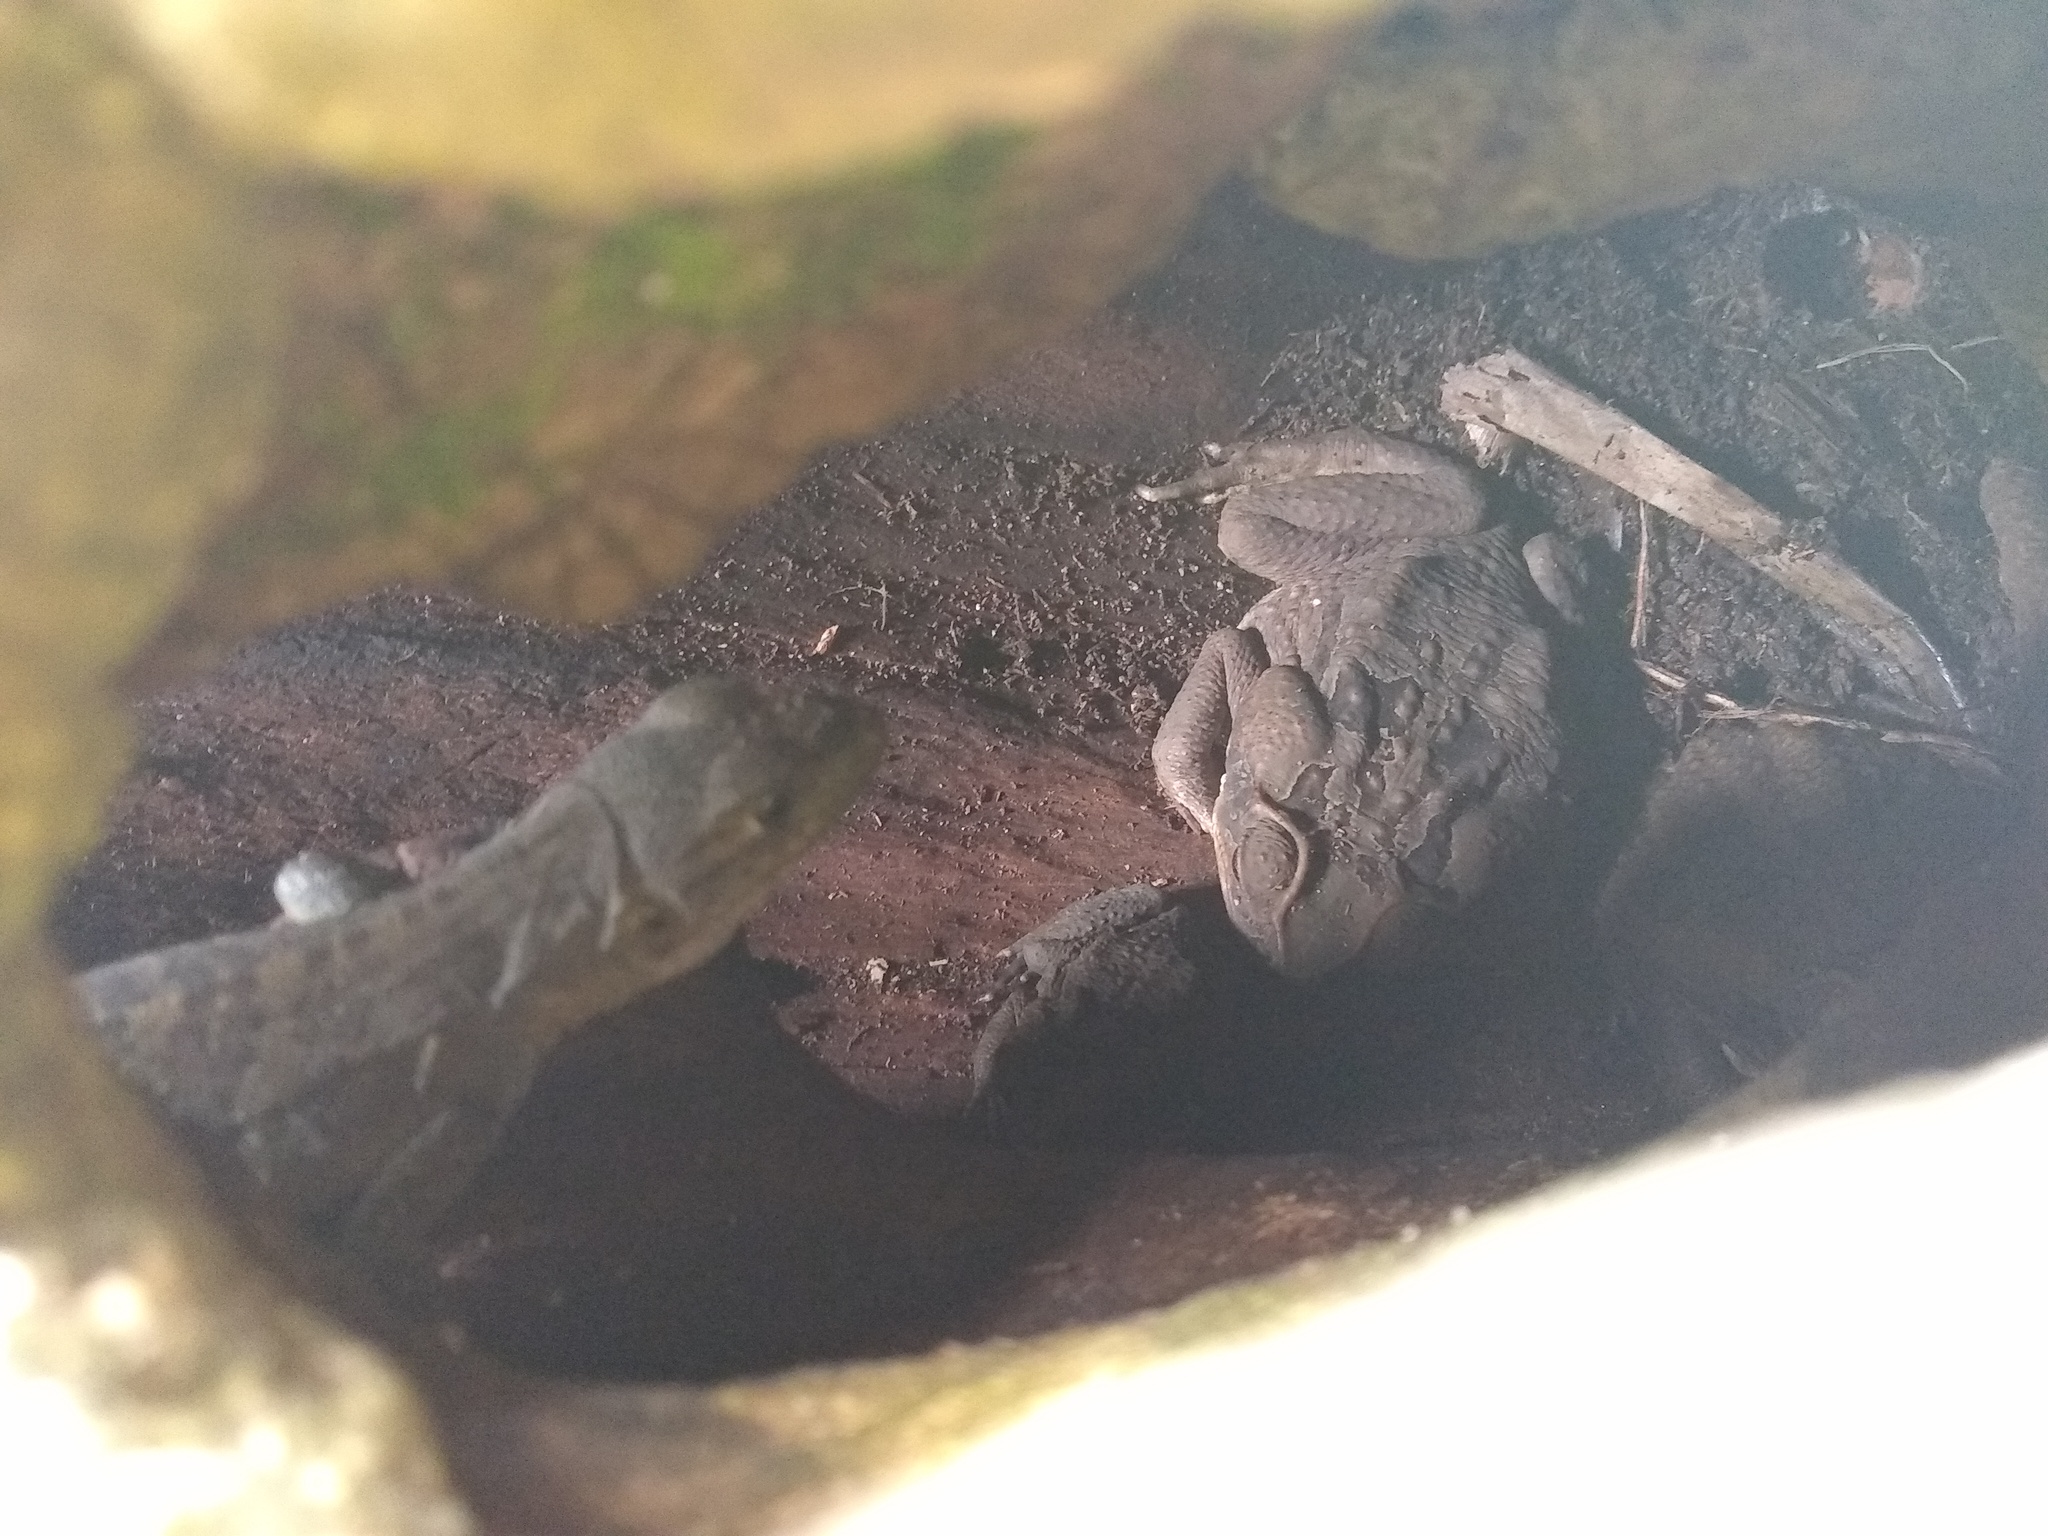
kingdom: Animalia
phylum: Chordata
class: Squamata
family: Iguanidae
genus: Ctenosaura
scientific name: Ctenosaura similis
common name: Black spiny-tailed iguana
